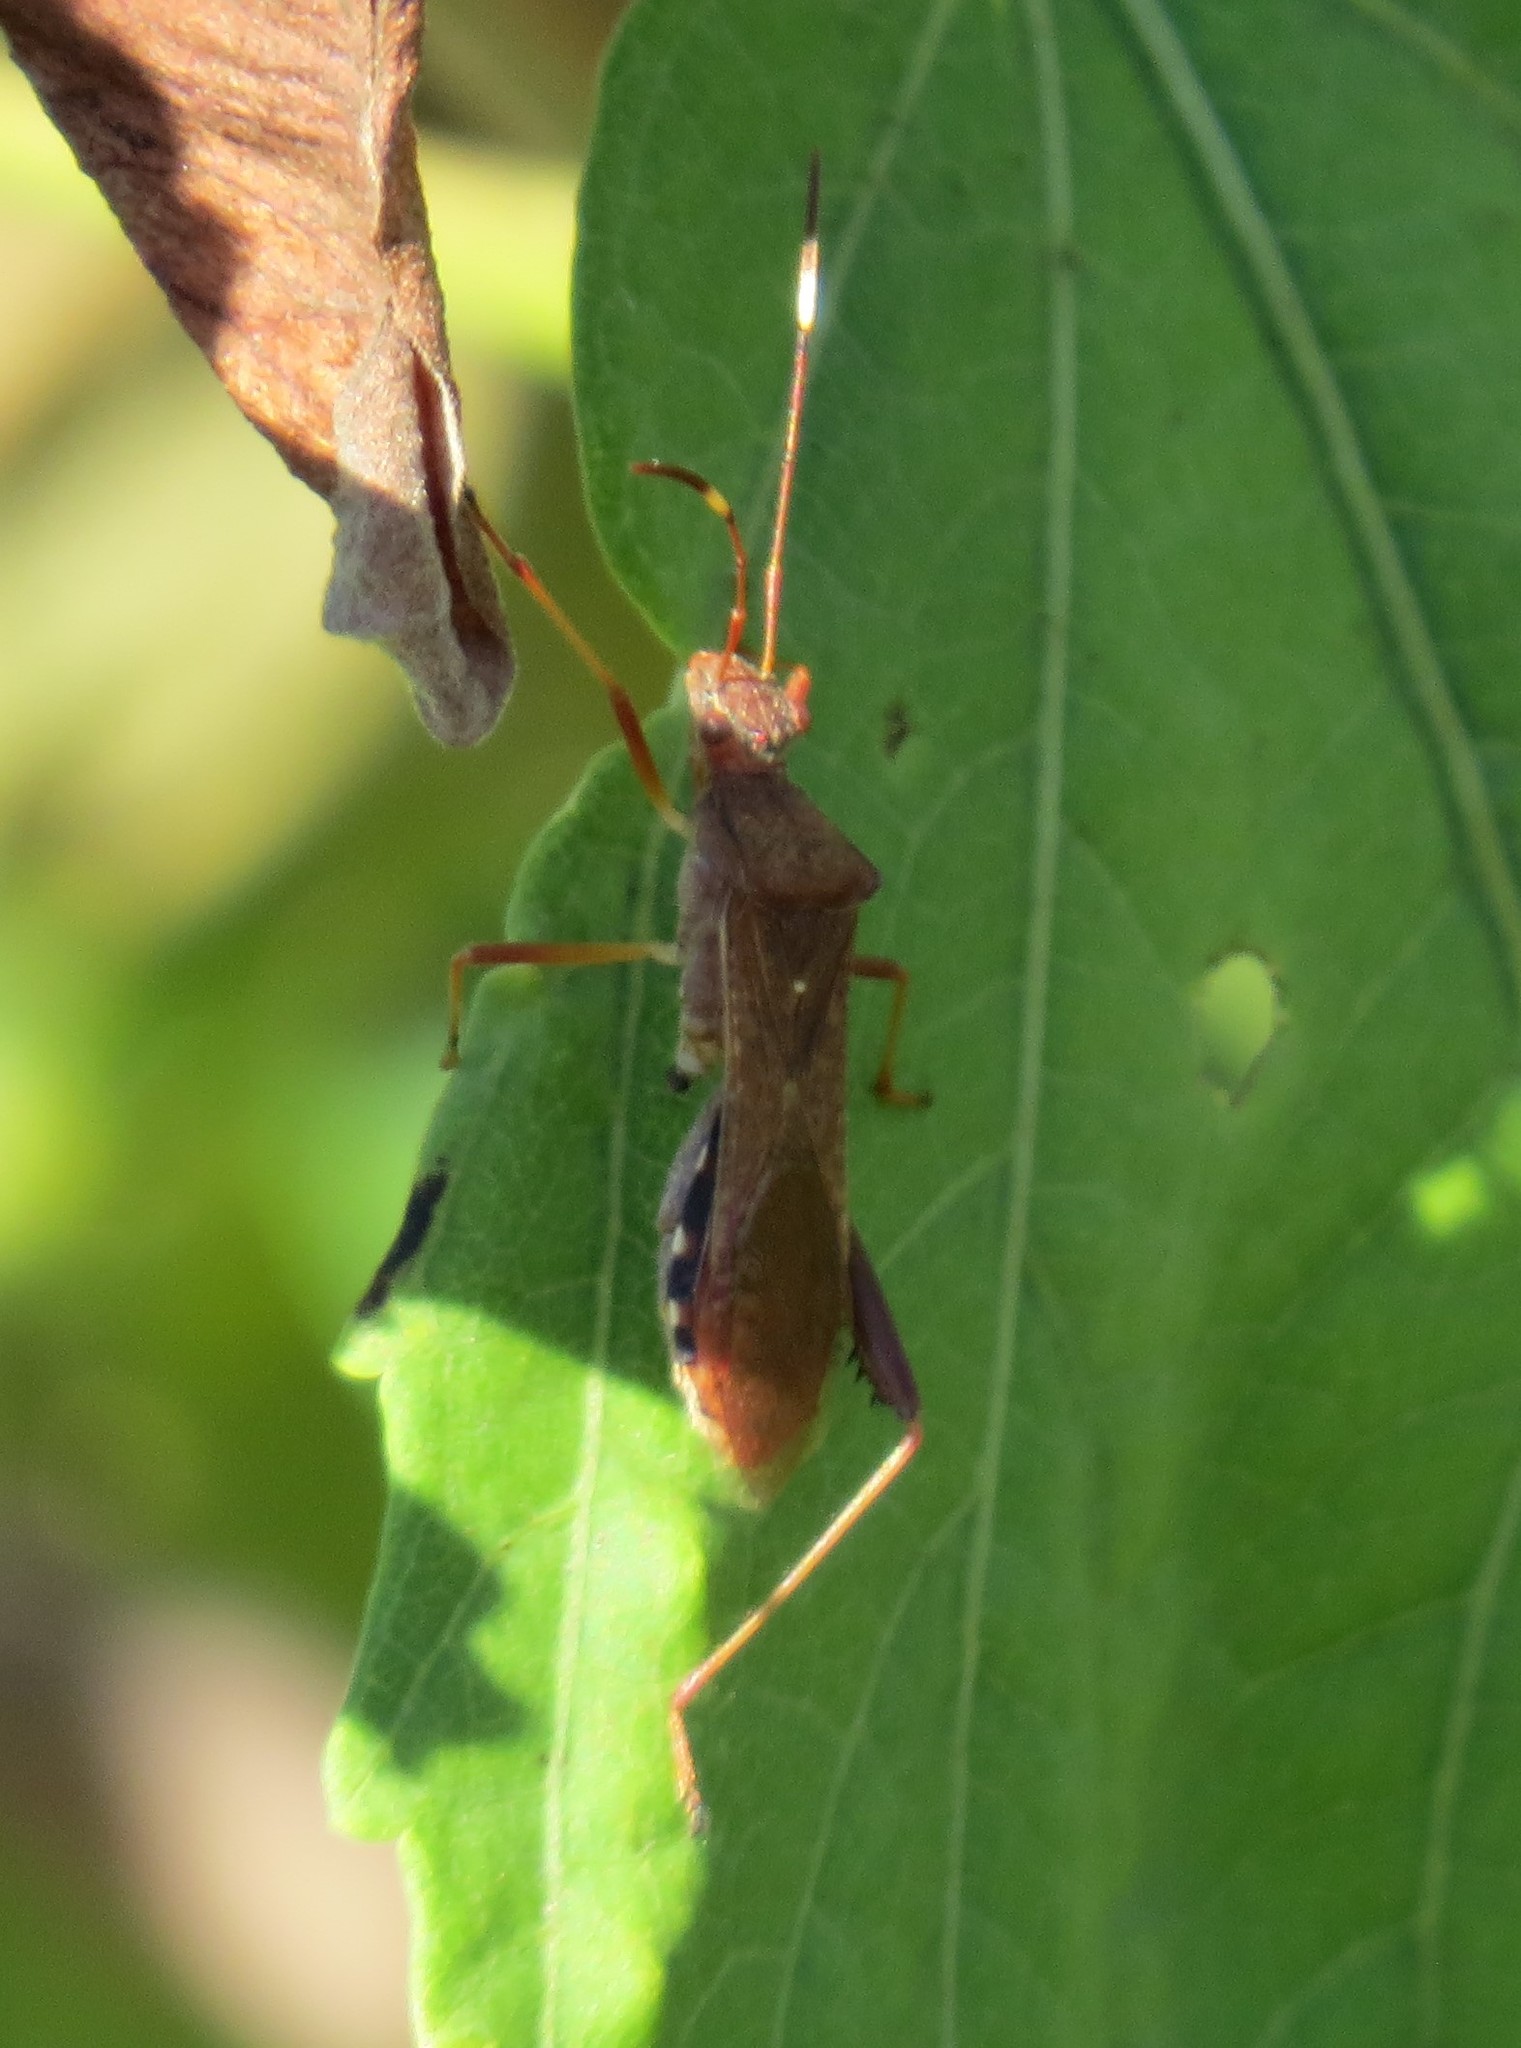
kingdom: Animalia
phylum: Arthropoda
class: Insecta
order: Hemiptera
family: Alydidae
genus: Megalotomus
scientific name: Megalotomus quinquespinosus
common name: Lupine bug
